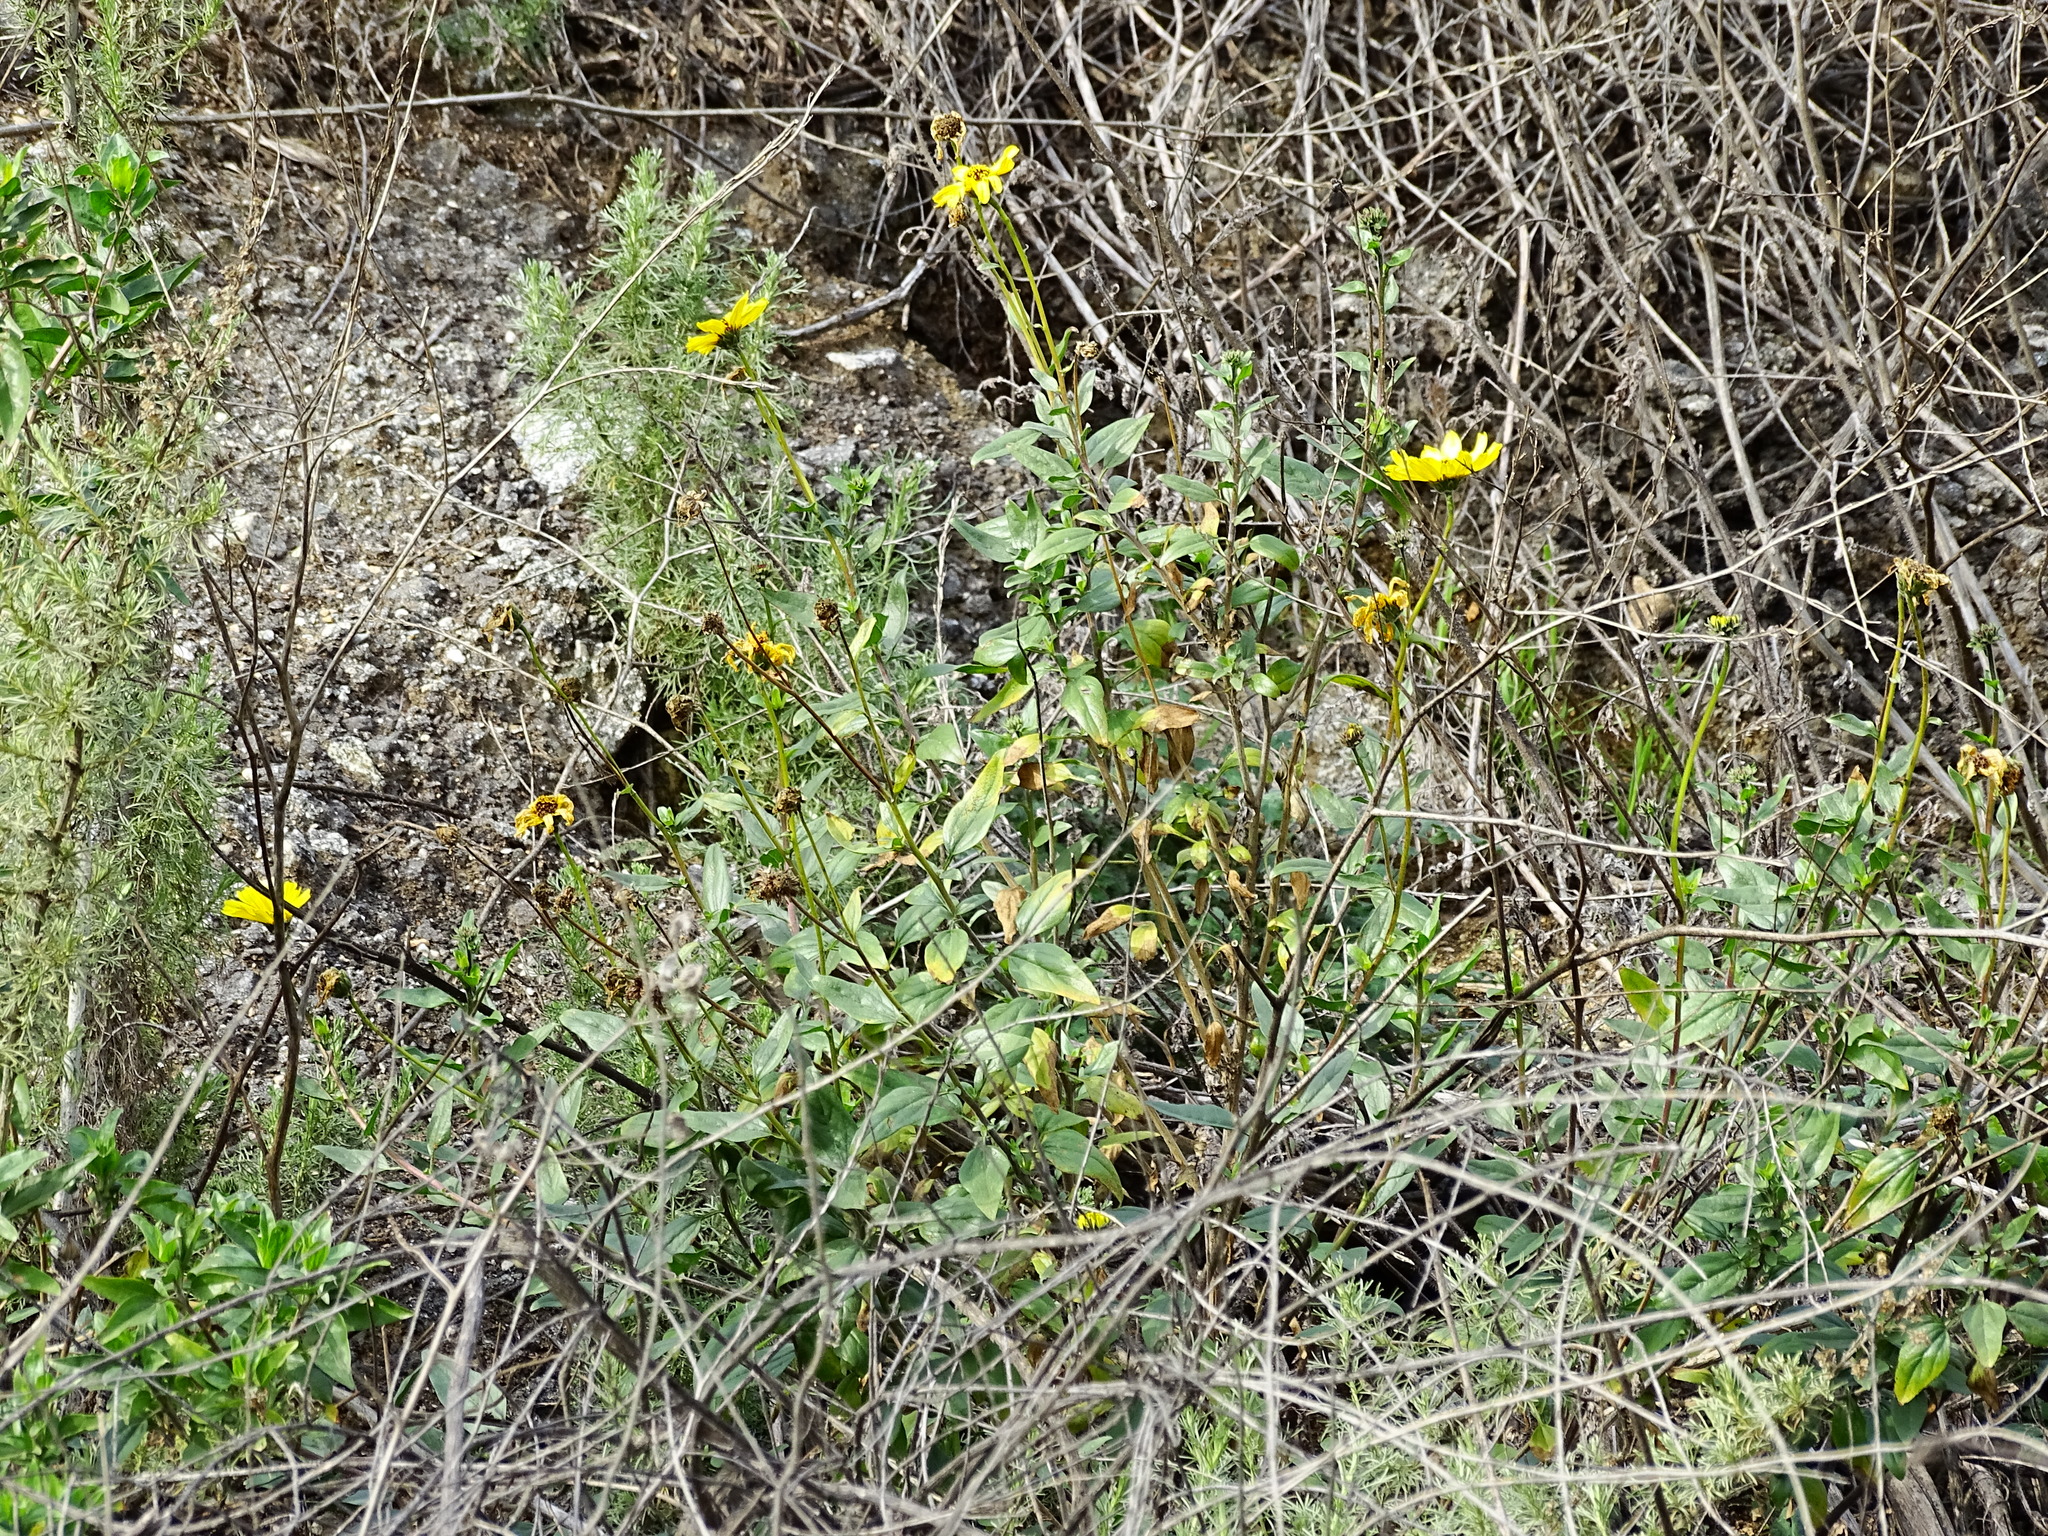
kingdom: Plantae
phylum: Tracheophyta
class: Magnoliopsida
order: Asterales
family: Asteraceae
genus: Encelia
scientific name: Encelia californica
